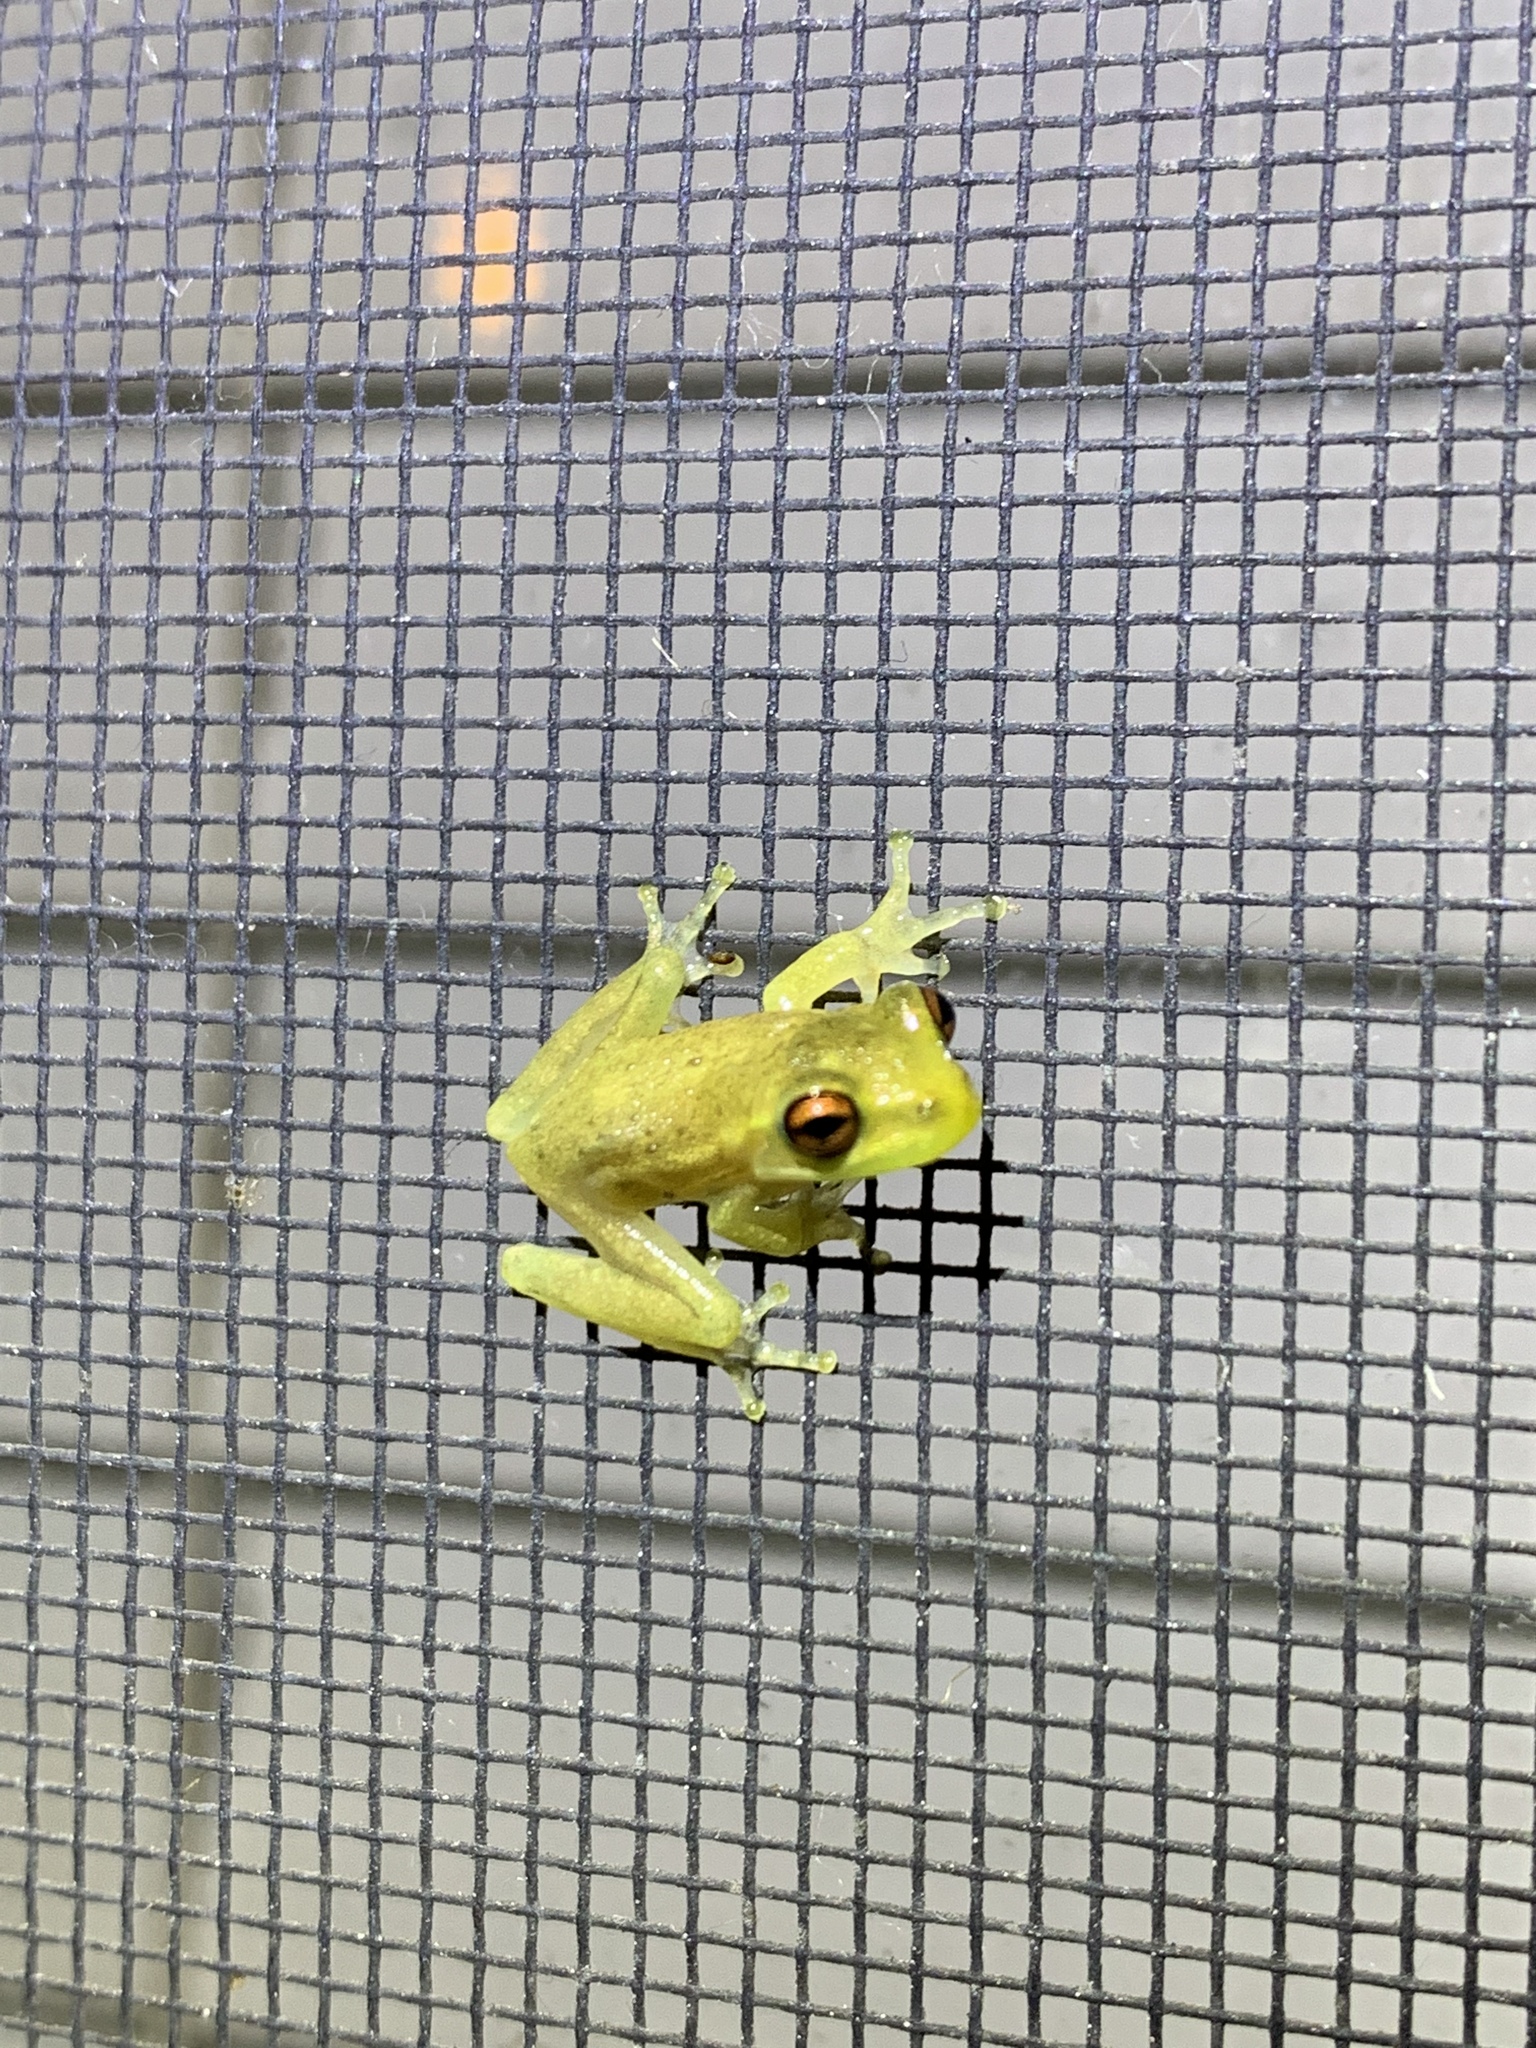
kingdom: Animalia
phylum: Chordata
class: Amphibia
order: Anura
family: Hylidae
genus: Osteopilus
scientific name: Osteopilus septentrionalis
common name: Cuban treefrog
